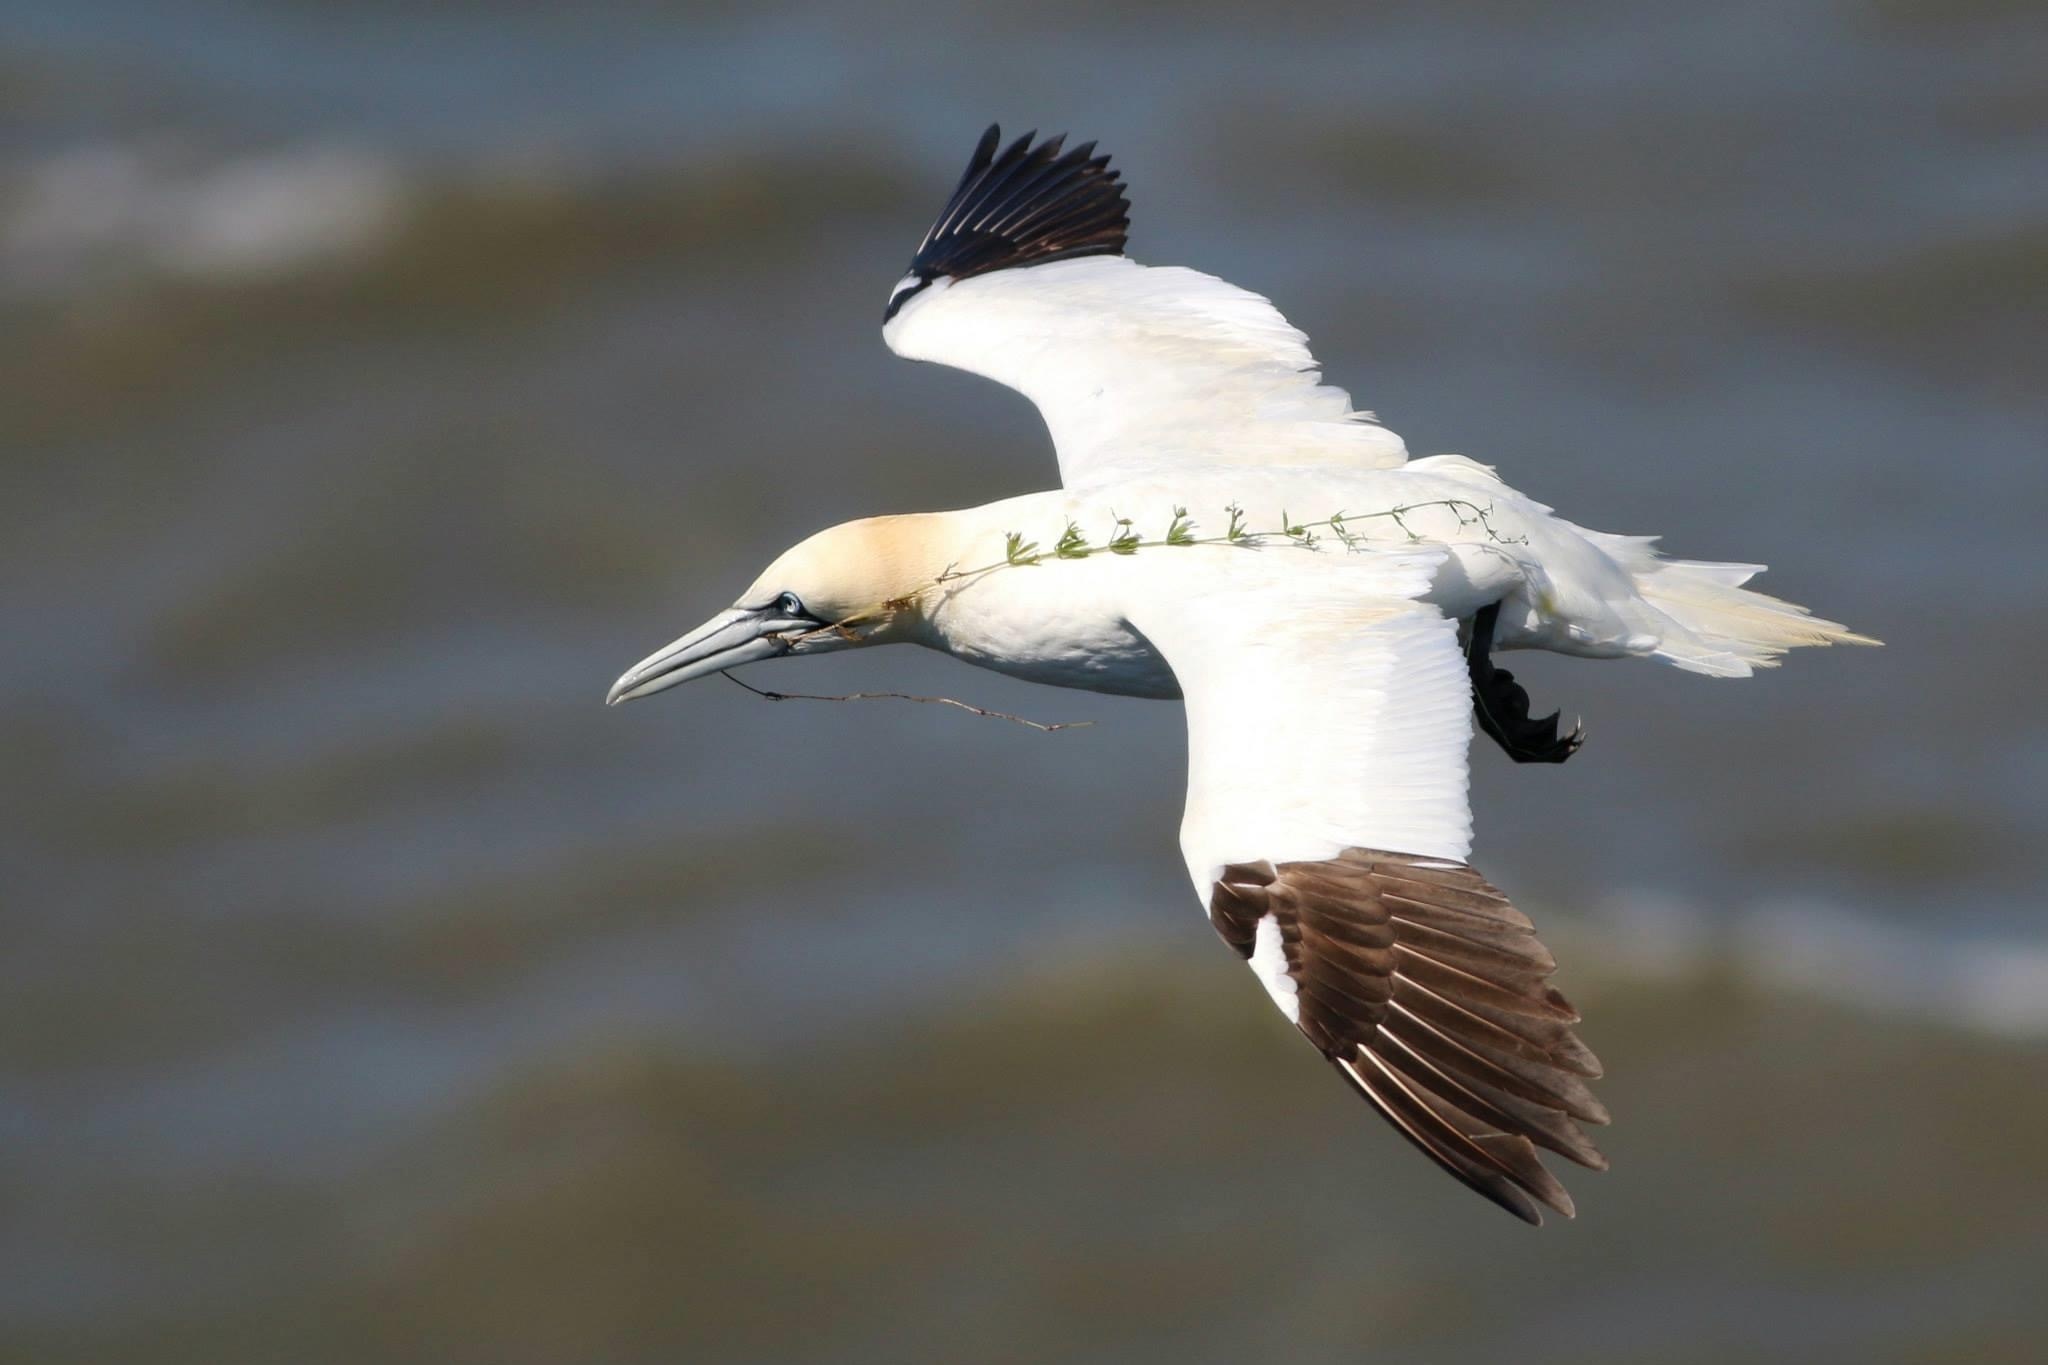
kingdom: Animalia
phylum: Chordata
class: Aves
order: Suliformes
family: Sulidae
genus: Morus
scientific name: Morus bassanus
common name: Northern gannet
